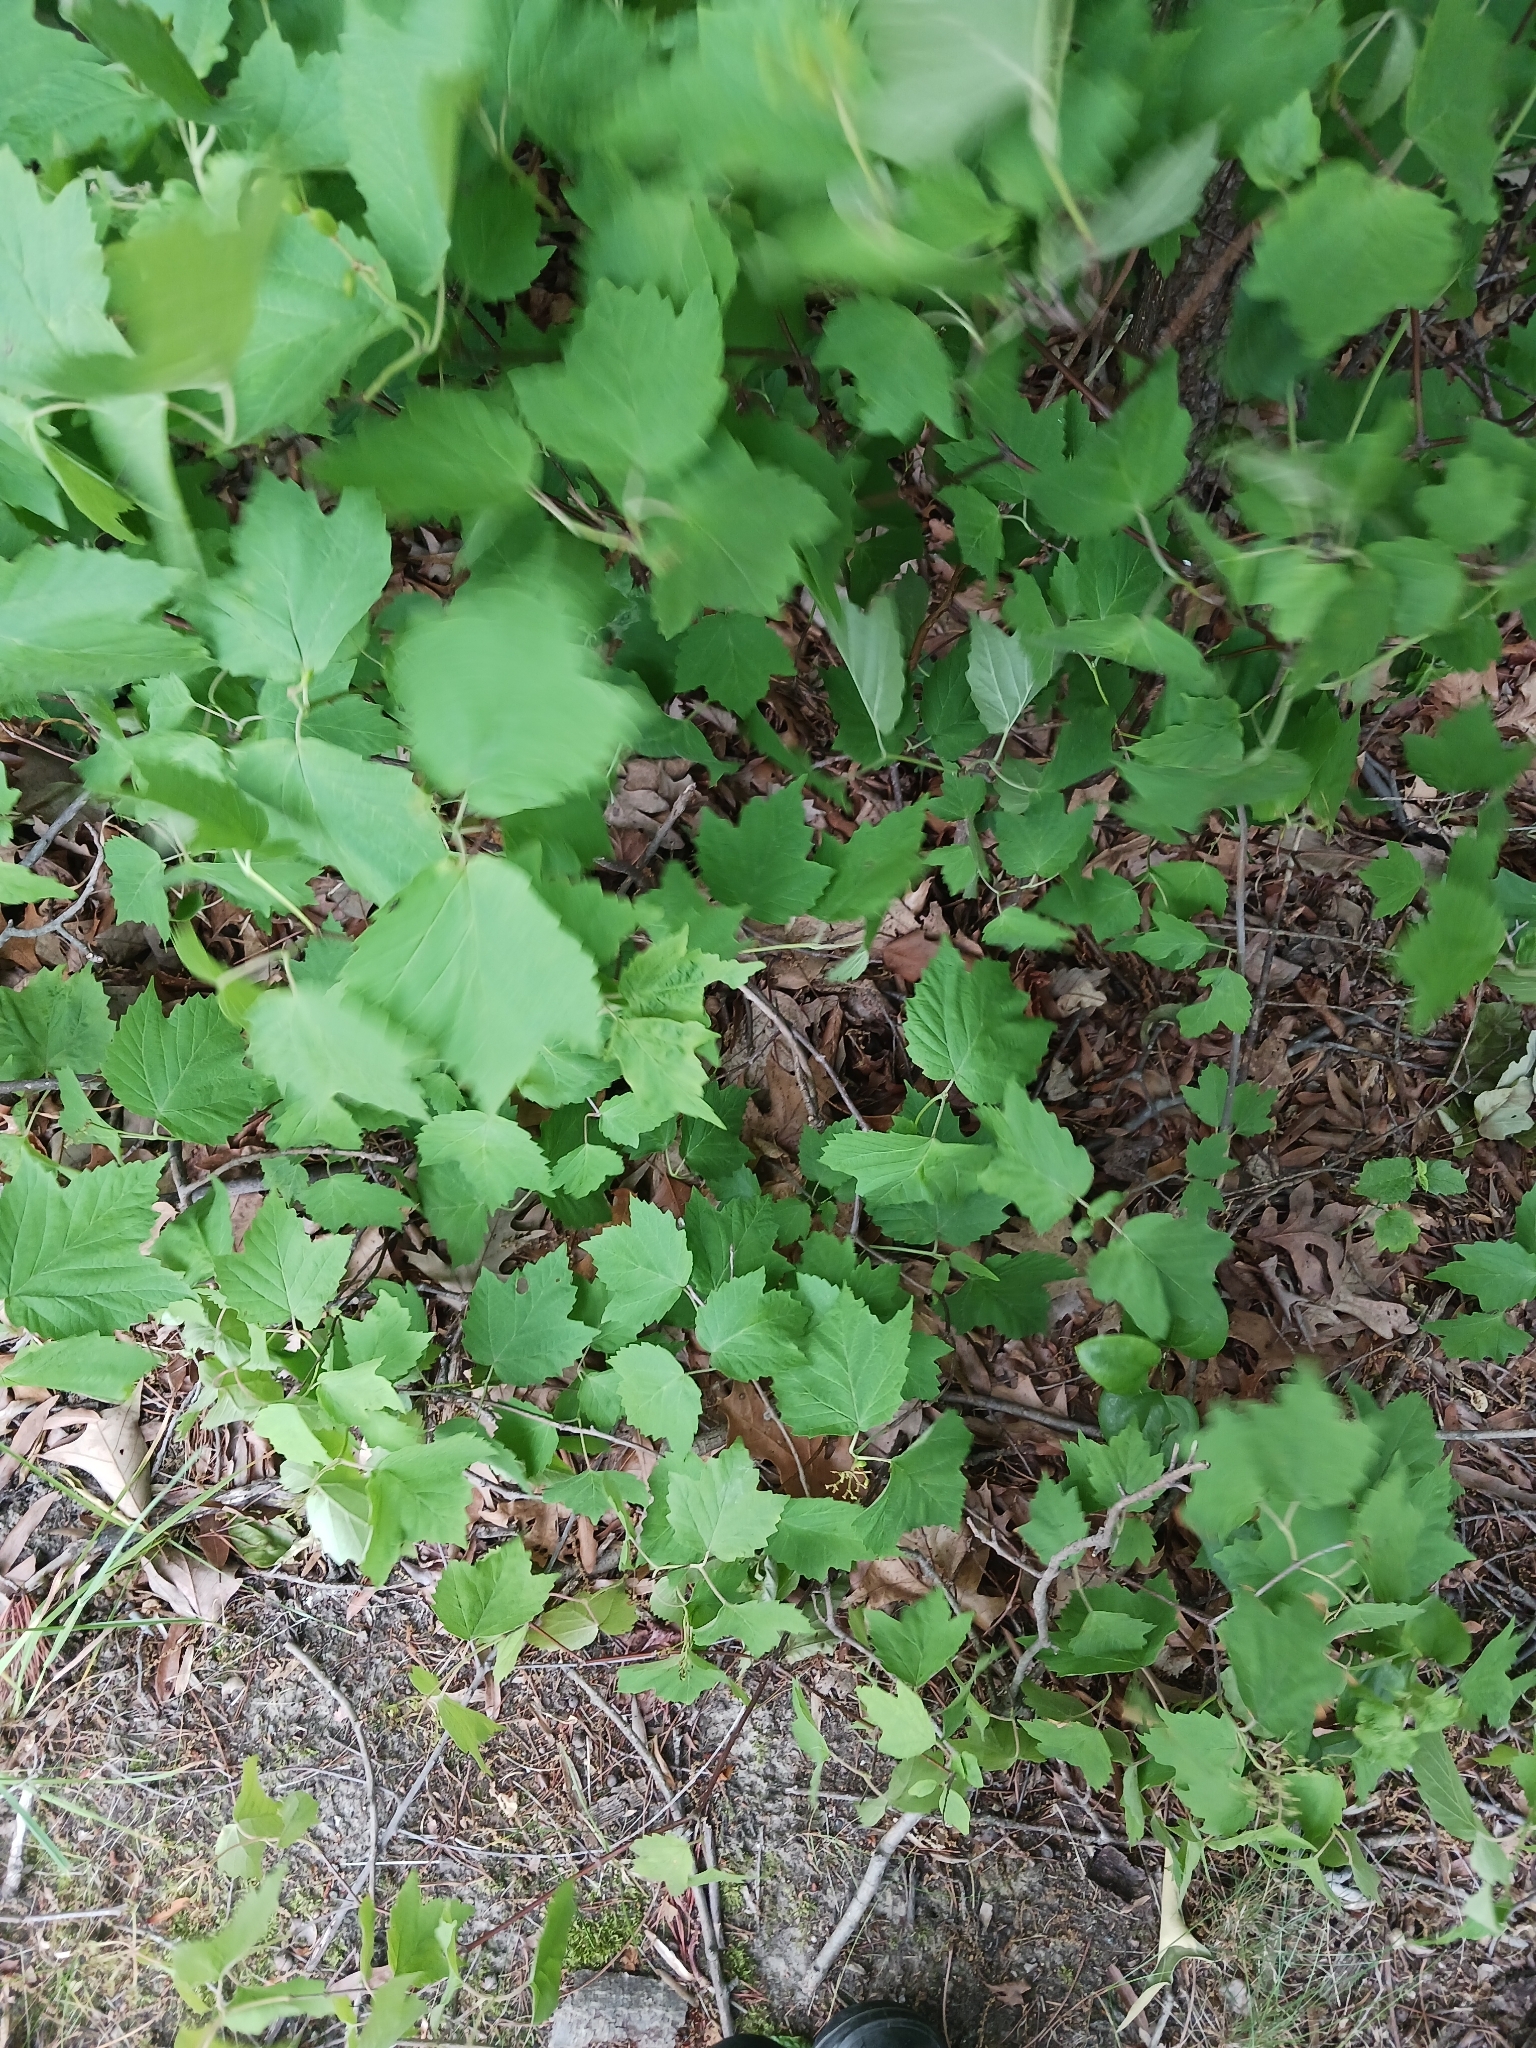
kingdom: Plantae
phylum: Tracheophyta
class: Magnoliopsida
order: Dipsacales
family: Viburnaceae
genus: Viburnum
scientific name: Viburnum acerifolium
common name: Dockmackie
